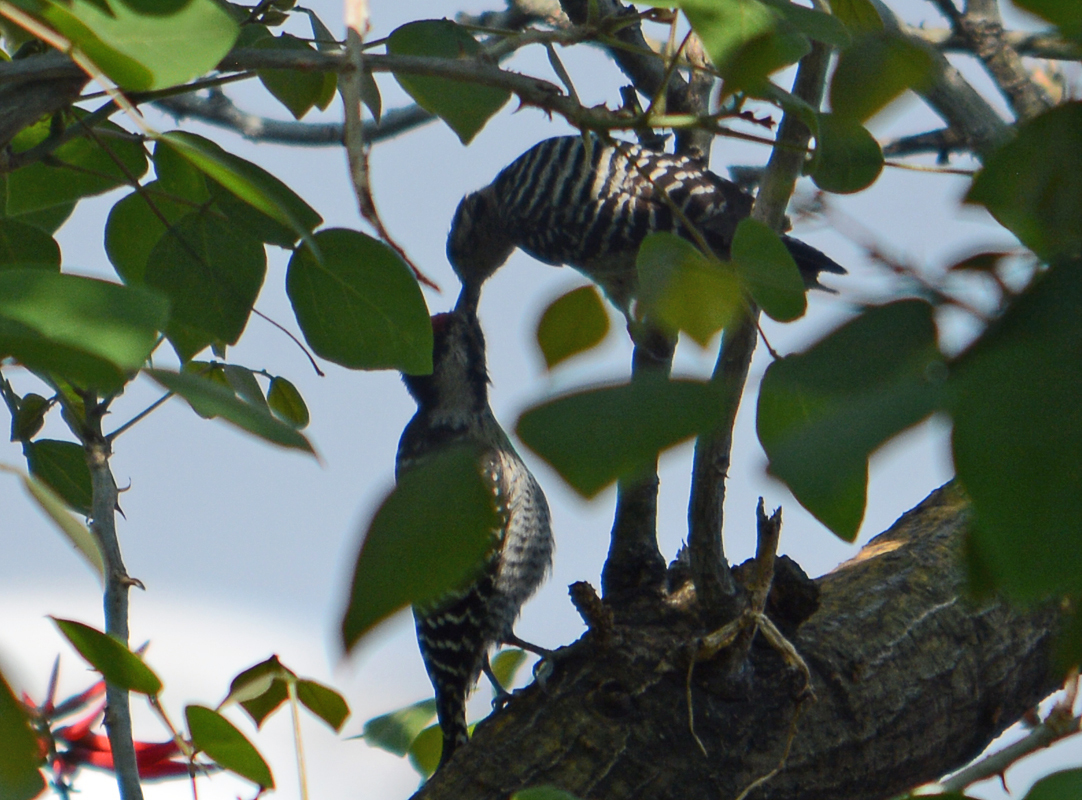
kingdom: Animalia
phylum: Chordata
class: Aves
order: Piciformes
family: Picidae
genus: Dryobates
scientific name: Dryobates scalaris
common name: Ladder-backed woodpecker
